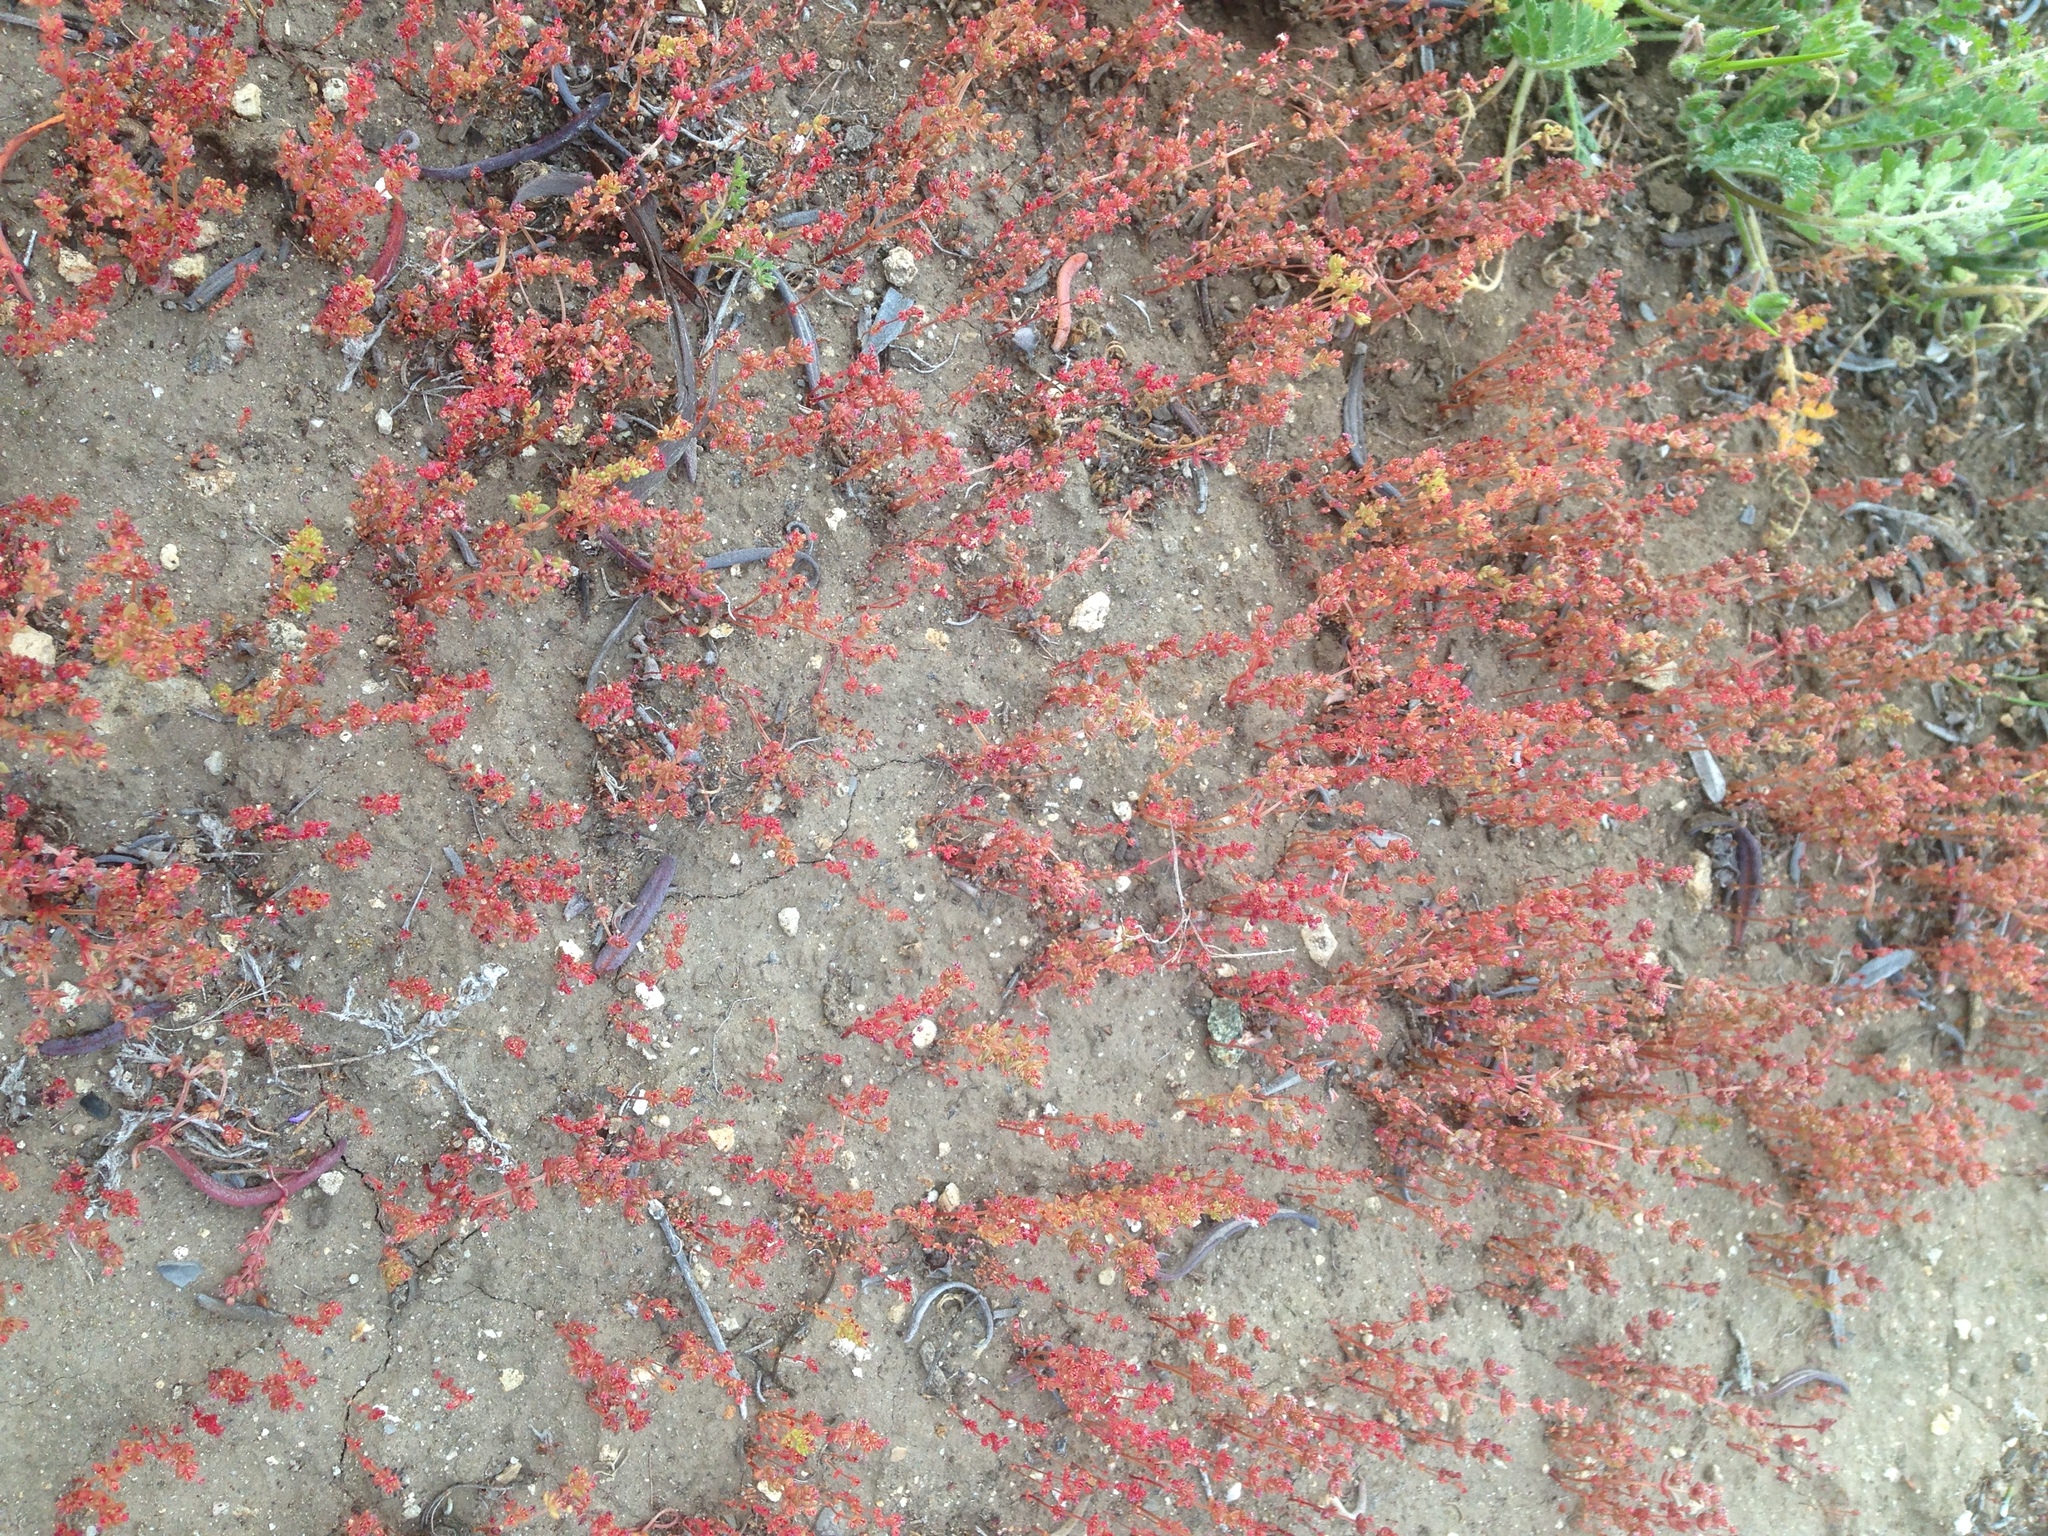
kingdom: Plantae
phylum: Tracheophyta
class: Magnoliopsida
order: Saxifragales
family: Crassulaceae
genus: Crassula
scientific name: Crassula connata
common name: Erect pygmyweed
